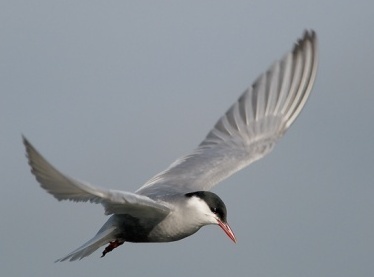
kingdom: Animalia
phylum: Chordata
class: Aves
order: Charadriiformes
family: Laridae
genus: Chlidonias
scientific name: Chlidonias hybrida
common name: Whiskered tern
